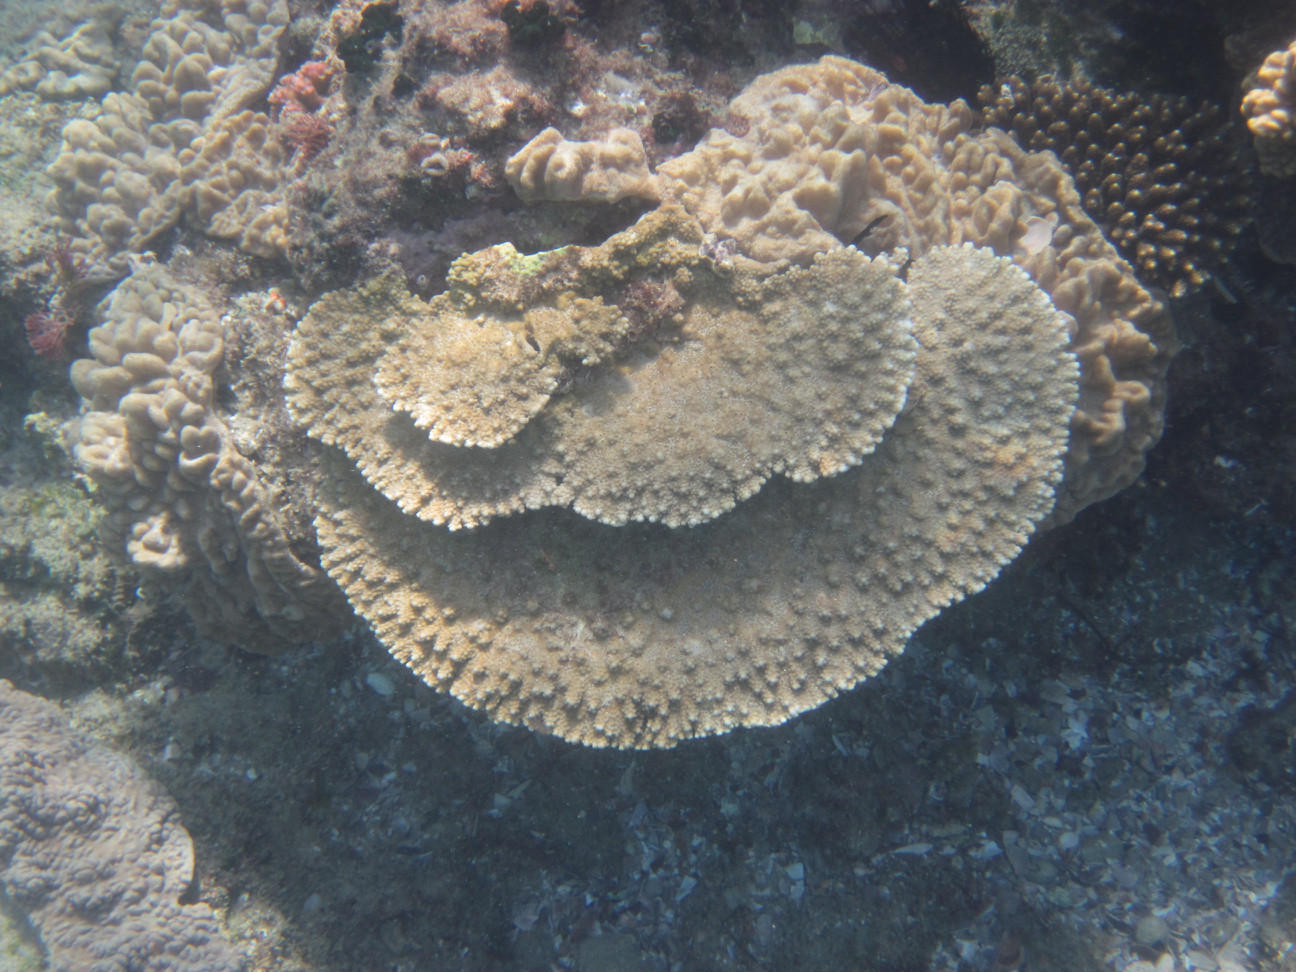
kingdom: Animalia
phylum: Cnidaria
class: Anthozoa
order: Scleractinia
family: Acroporidae
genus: Acropora
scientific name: Acropora branchi
